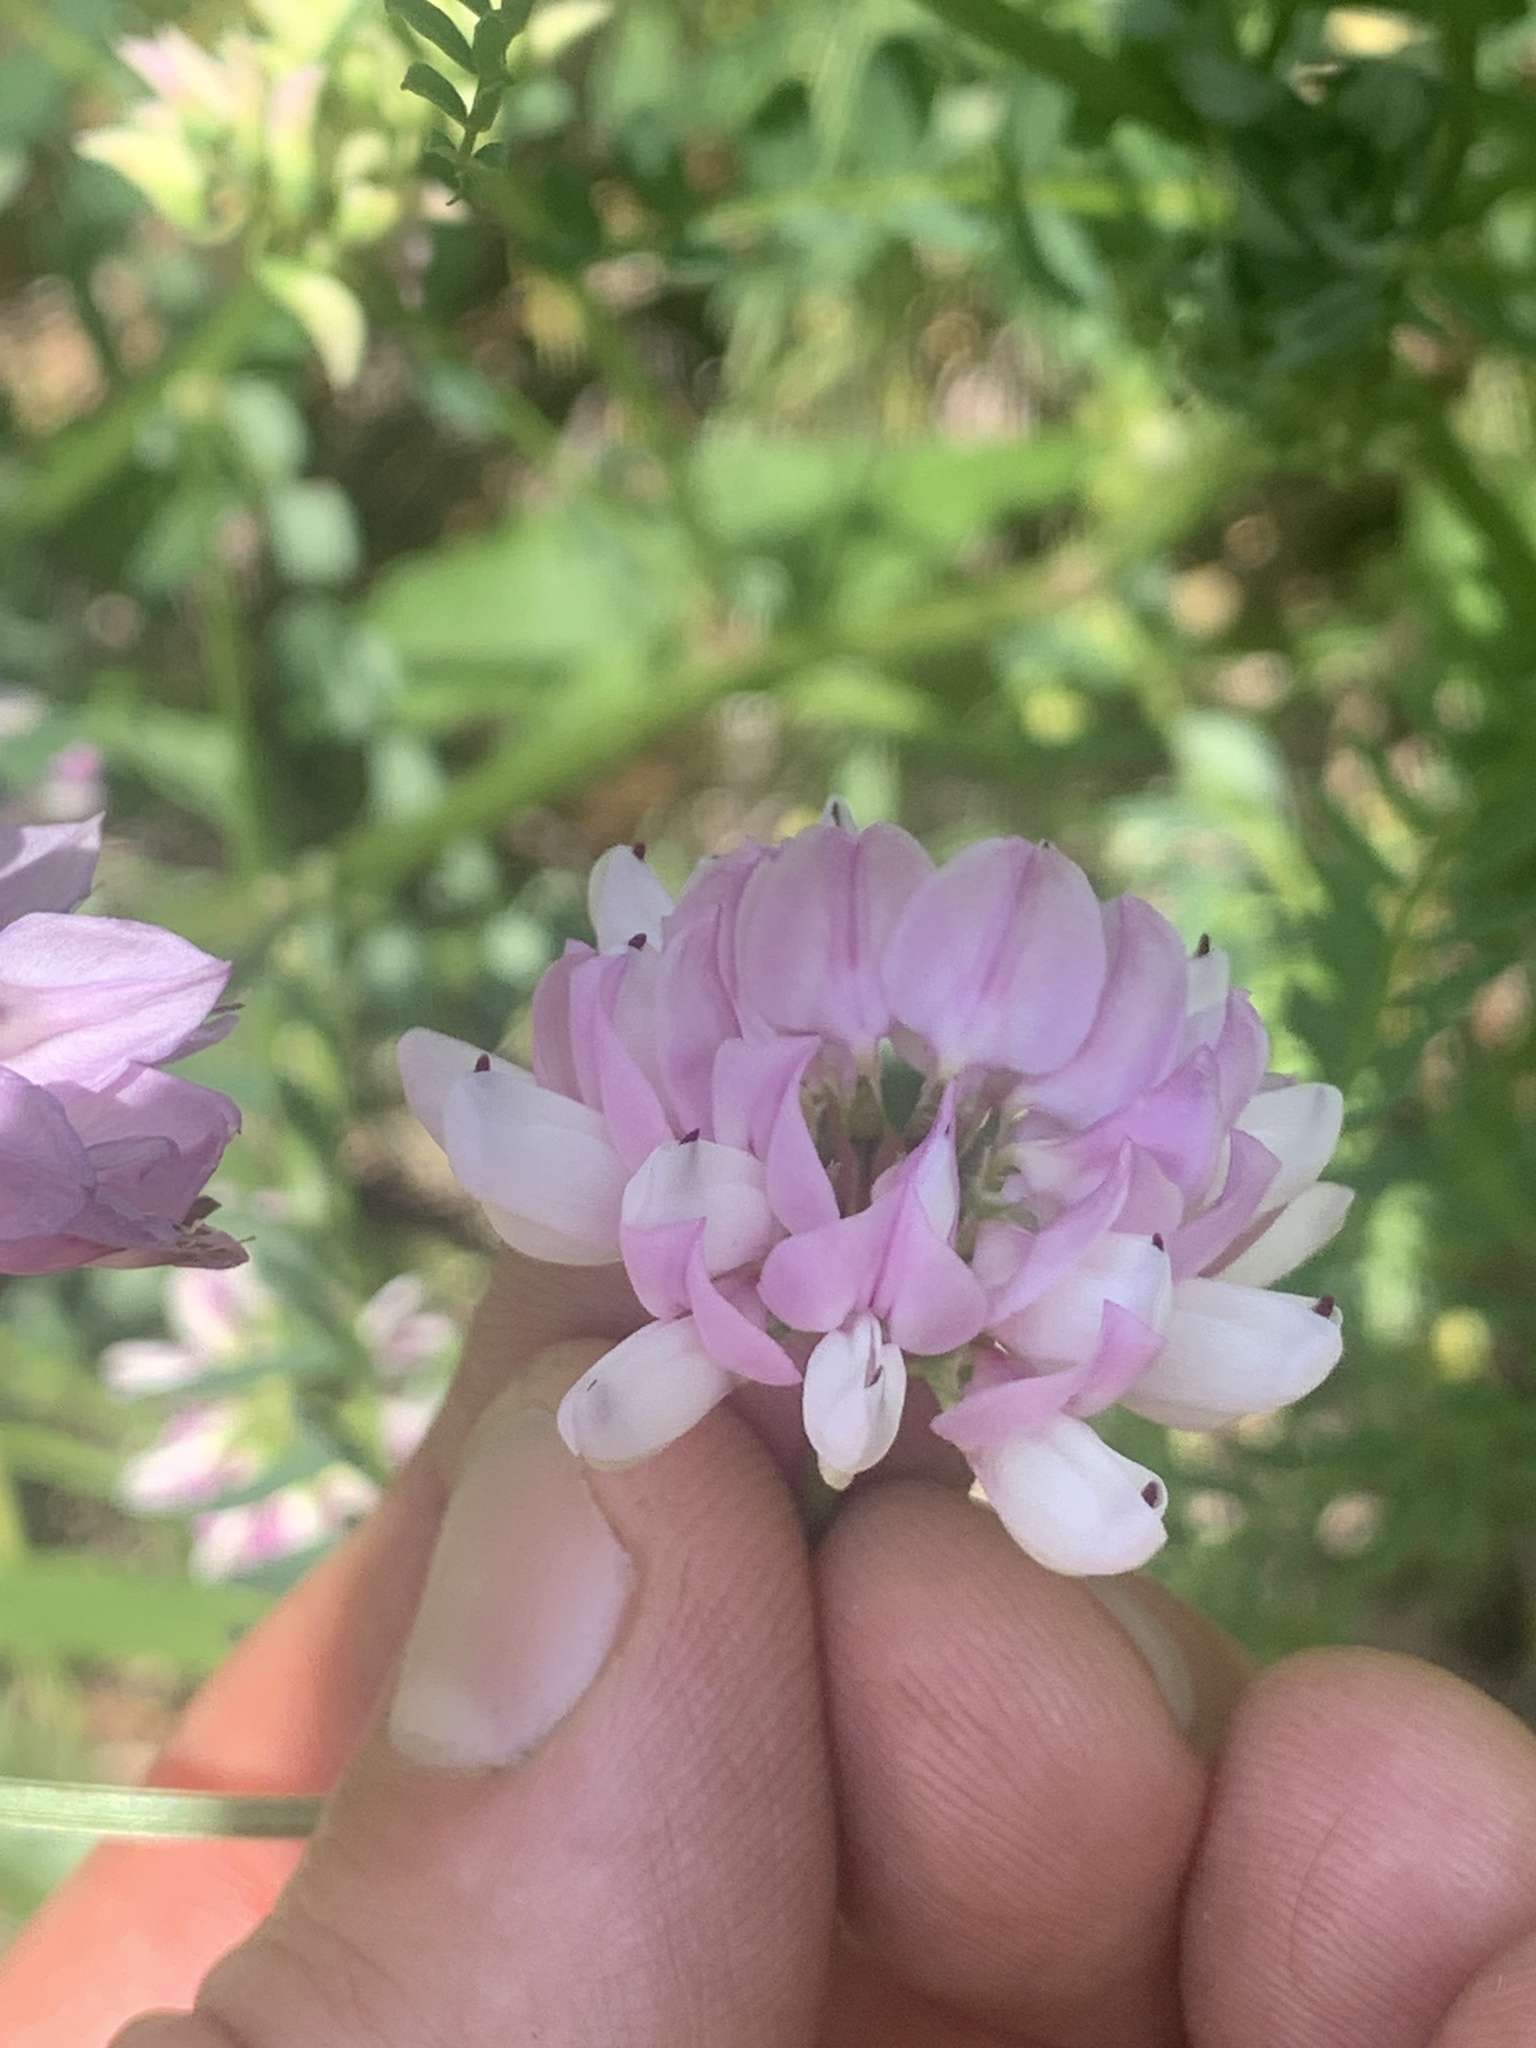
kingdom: Plantae
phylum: Tracheophyta
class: Magnoliopsida
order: Fabales
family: Fabaceae
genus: Coronilla
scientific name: Coronilla varia
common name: Crownvetch
